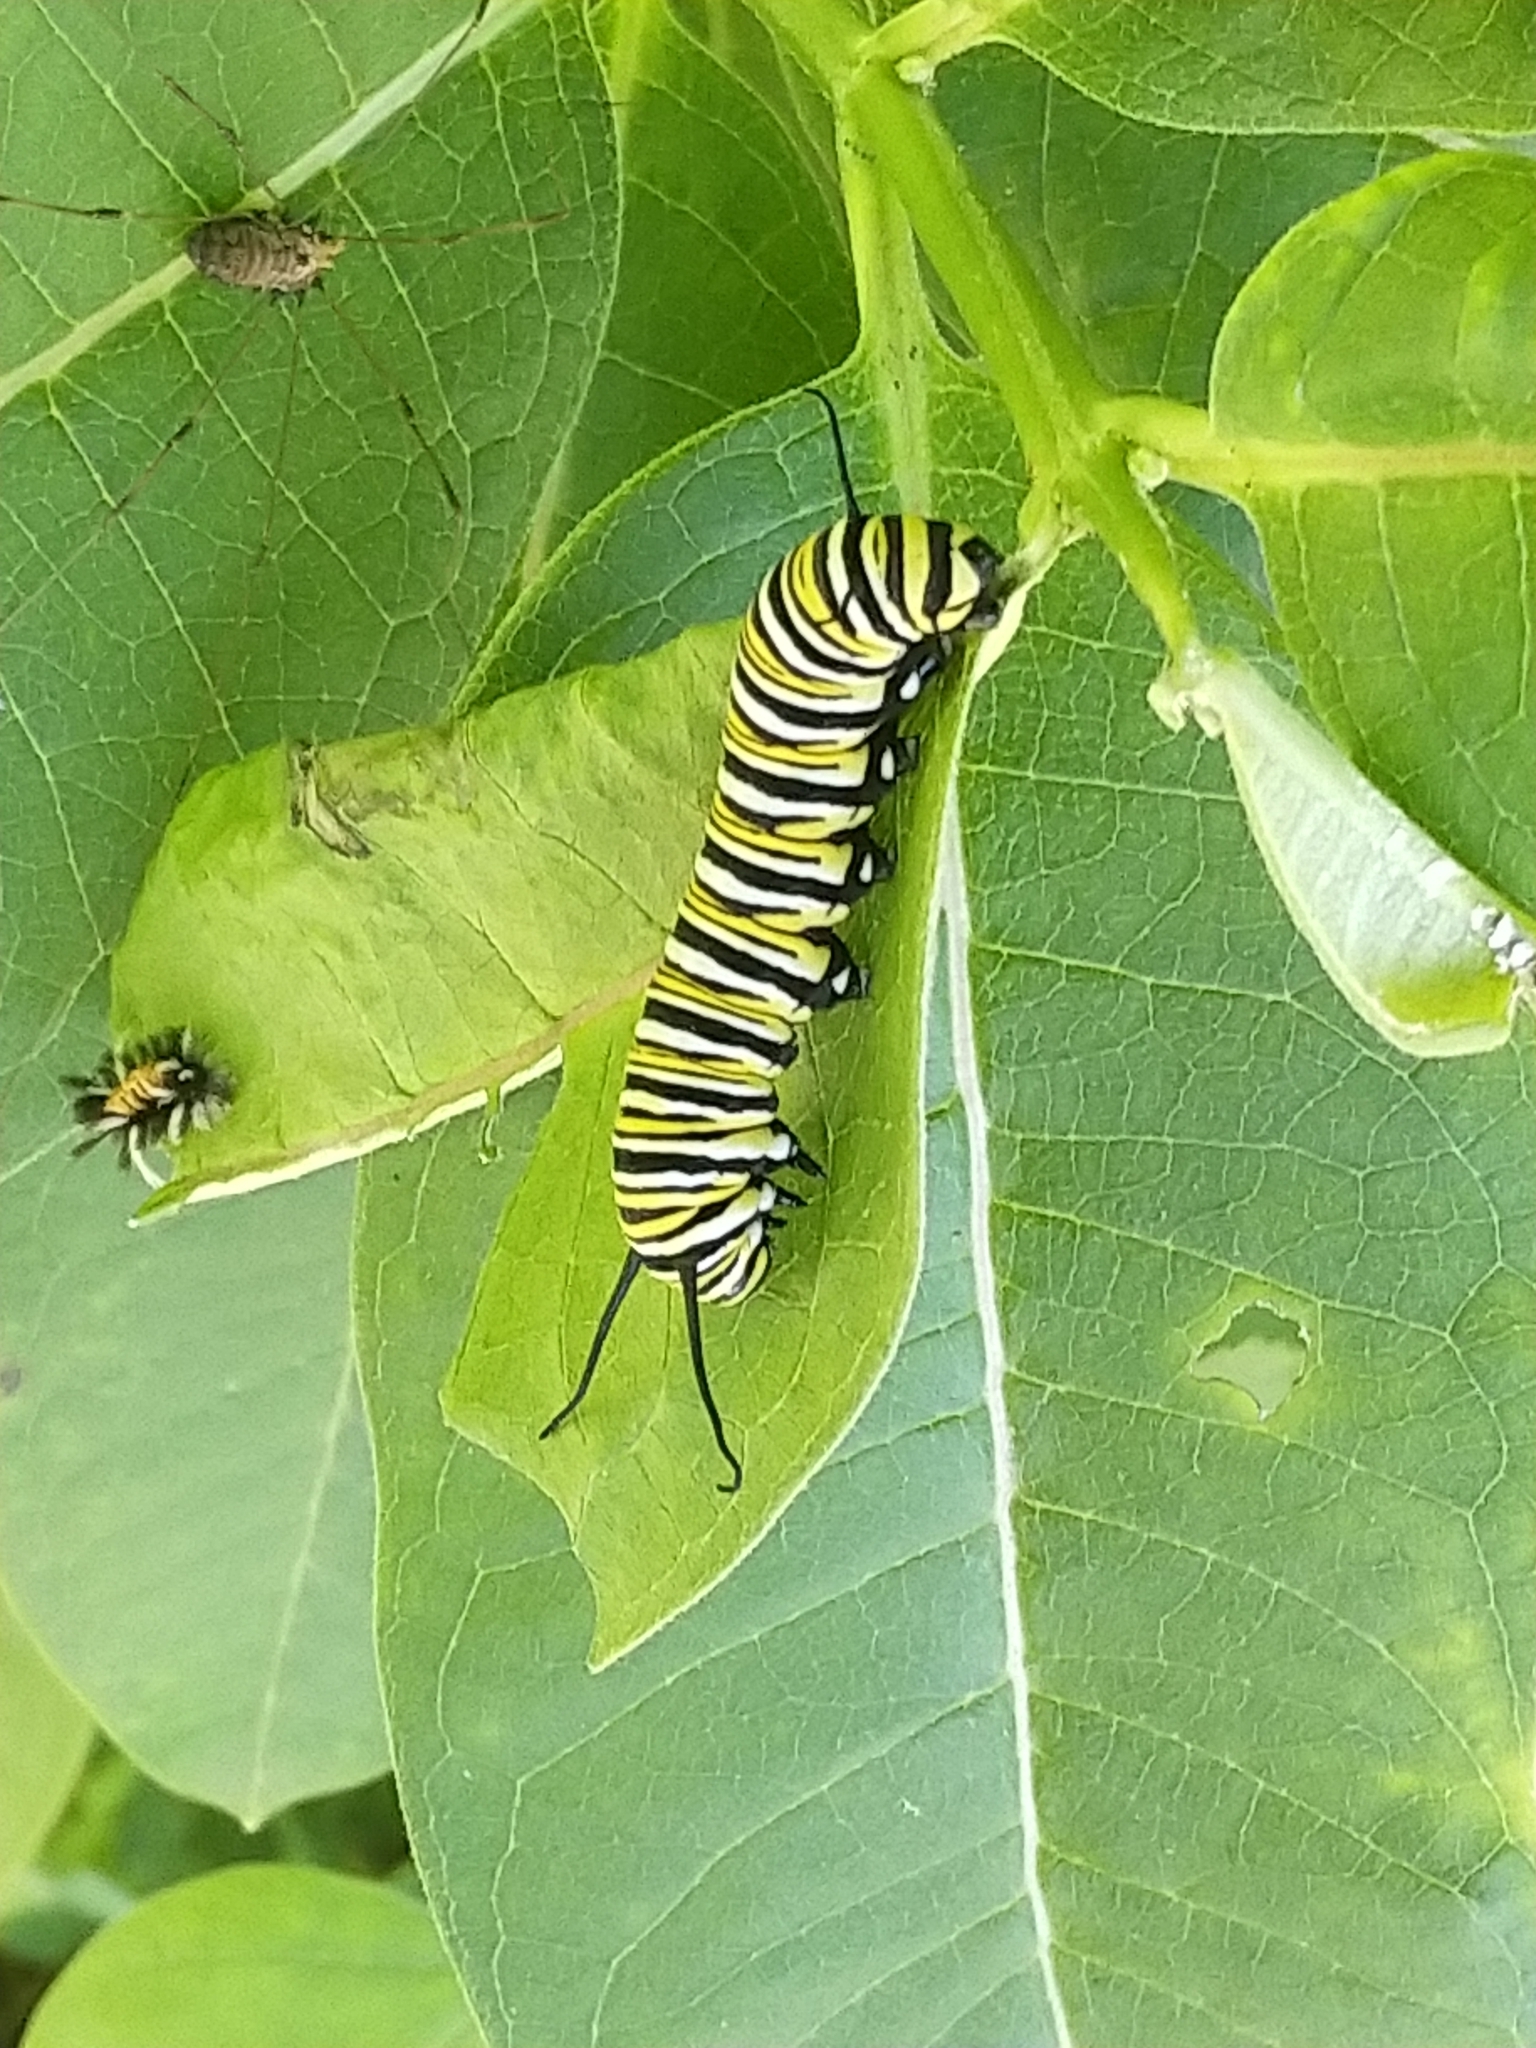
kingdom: Animalia
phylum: Arthropoda
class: Insecta
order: Lepidoptera
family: Nymphalidae
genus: Danaus
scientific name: Danaus plexippus
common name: Monarch
